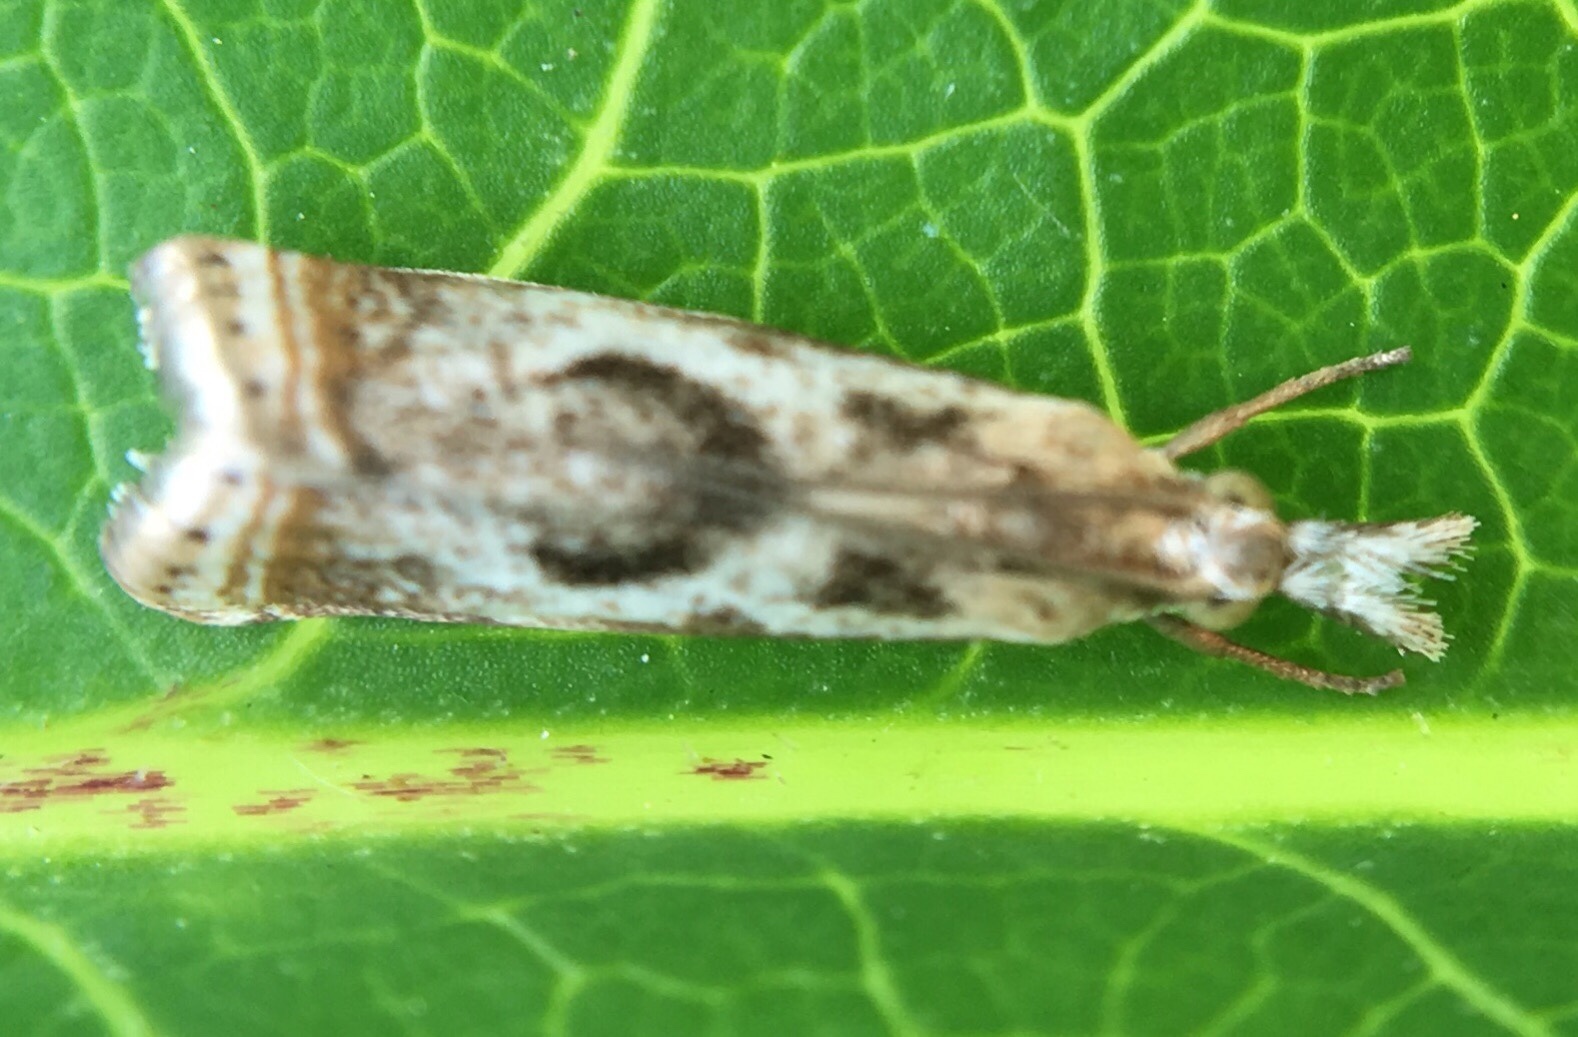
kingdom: Animalia
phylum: Arthropoda
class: Insecta
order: Lepidoptera
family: Crambidae
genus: Microcrambus
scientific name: Microcrambus elegans
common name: Elegant grass-veneer
